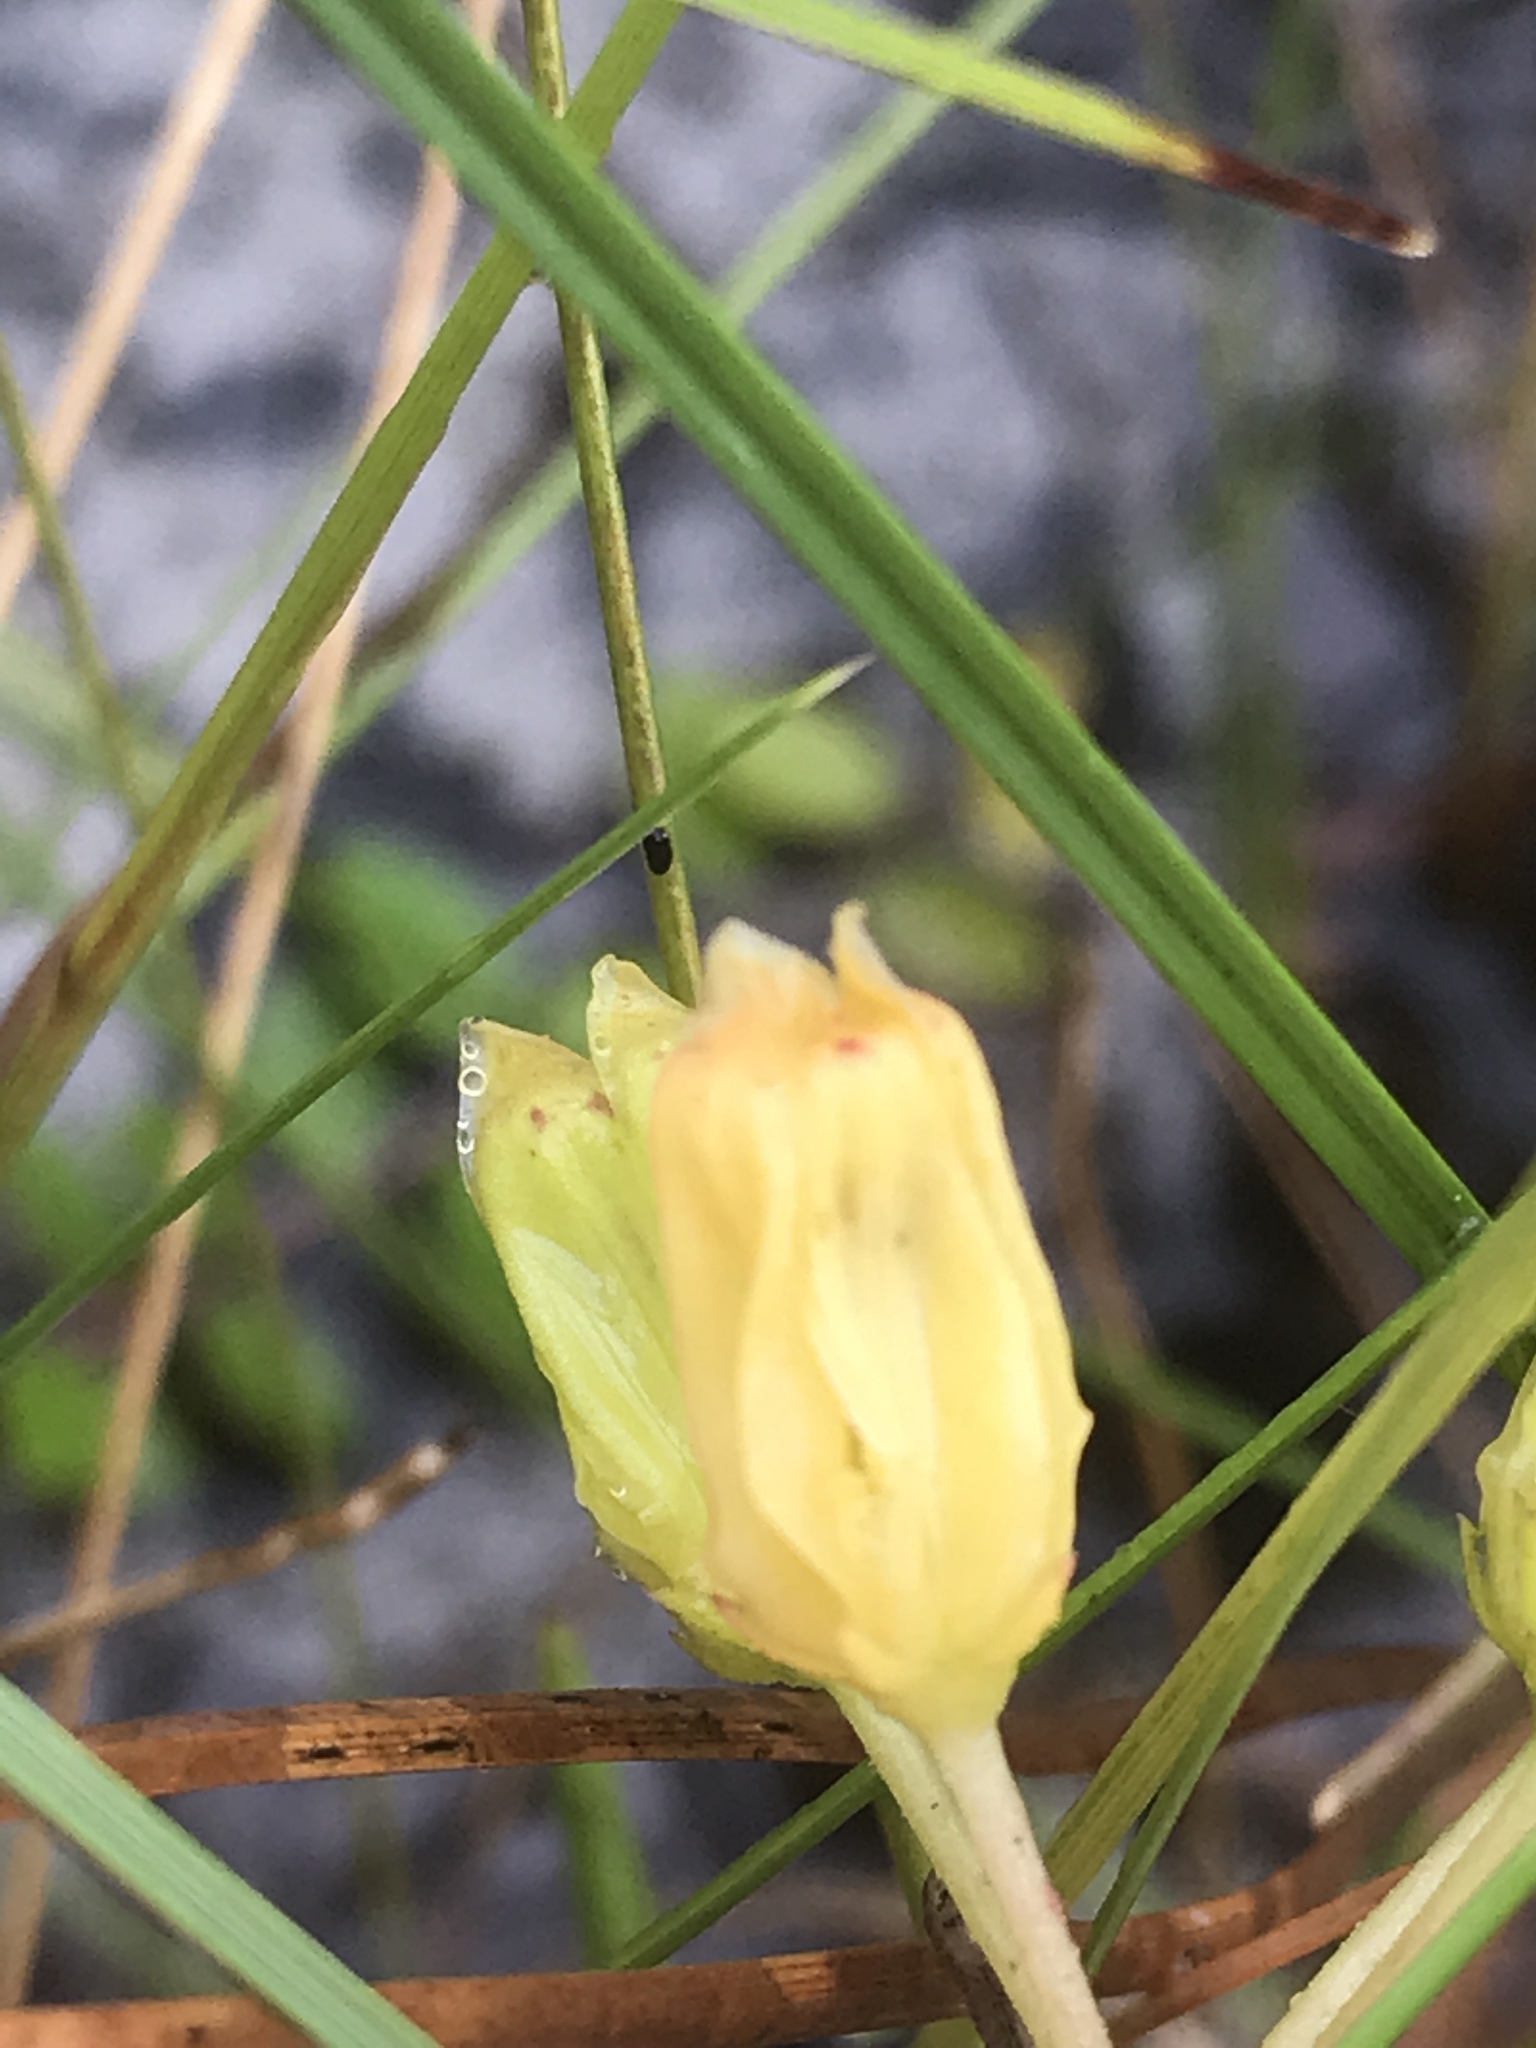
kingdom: Plantae
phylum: Tracheophyta
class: Magnoliopsida
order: Gentianales
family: Apocynaceae
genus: Asclepias
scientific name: Asclepias pedicellata
